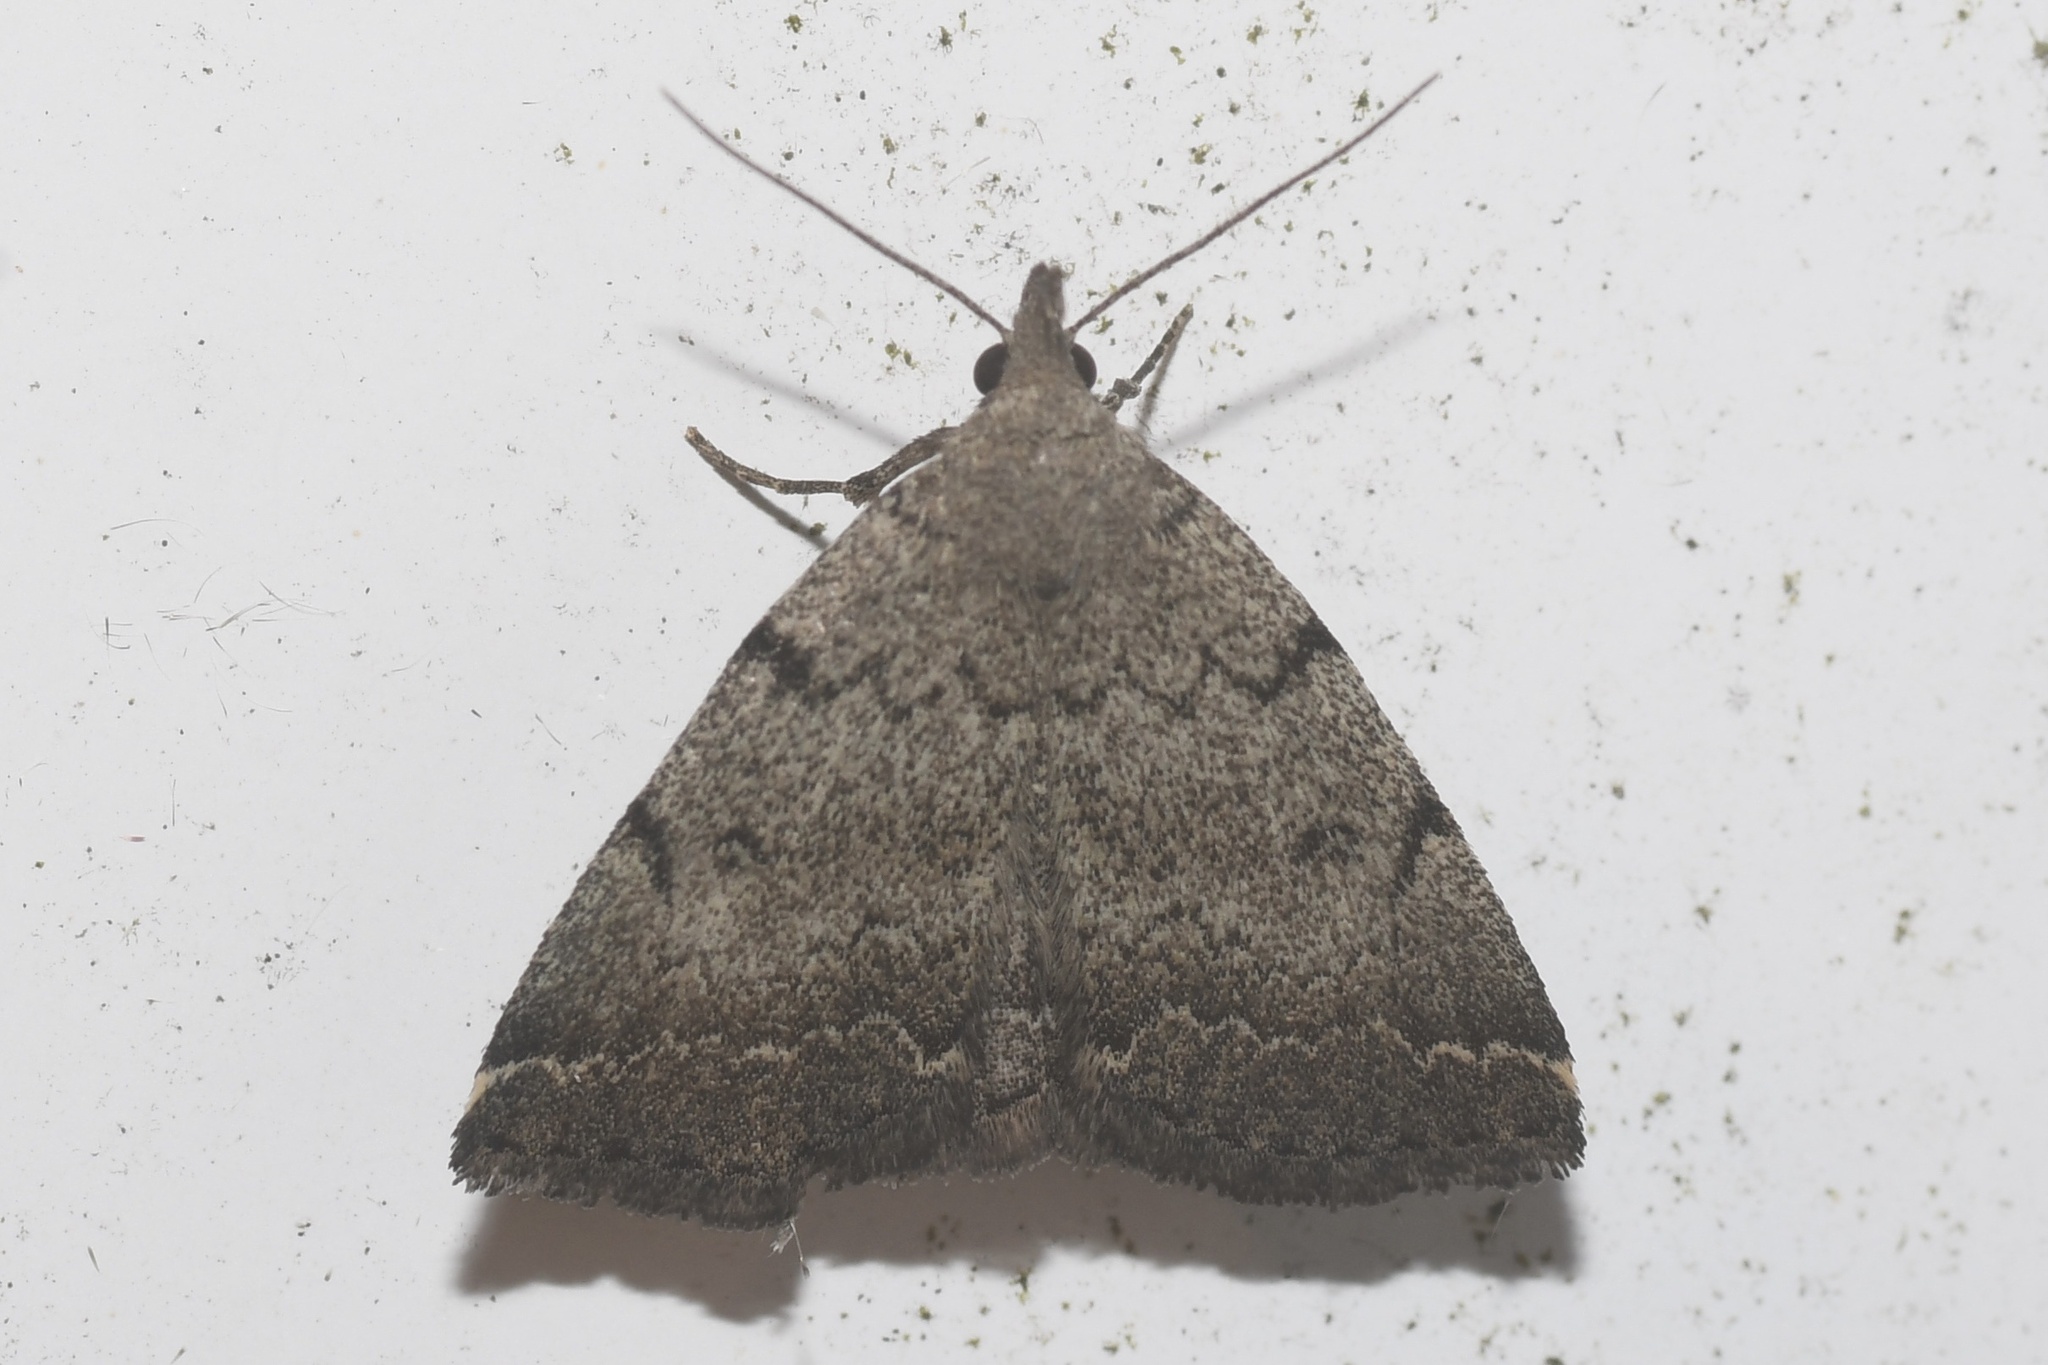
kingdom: Animalia
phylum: Arthropoda
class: Insecta
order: Lepidoptera
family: Erebidae
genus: Zanclognatha
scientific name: Zanclognatha theralis
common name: Flagged fan-foot
